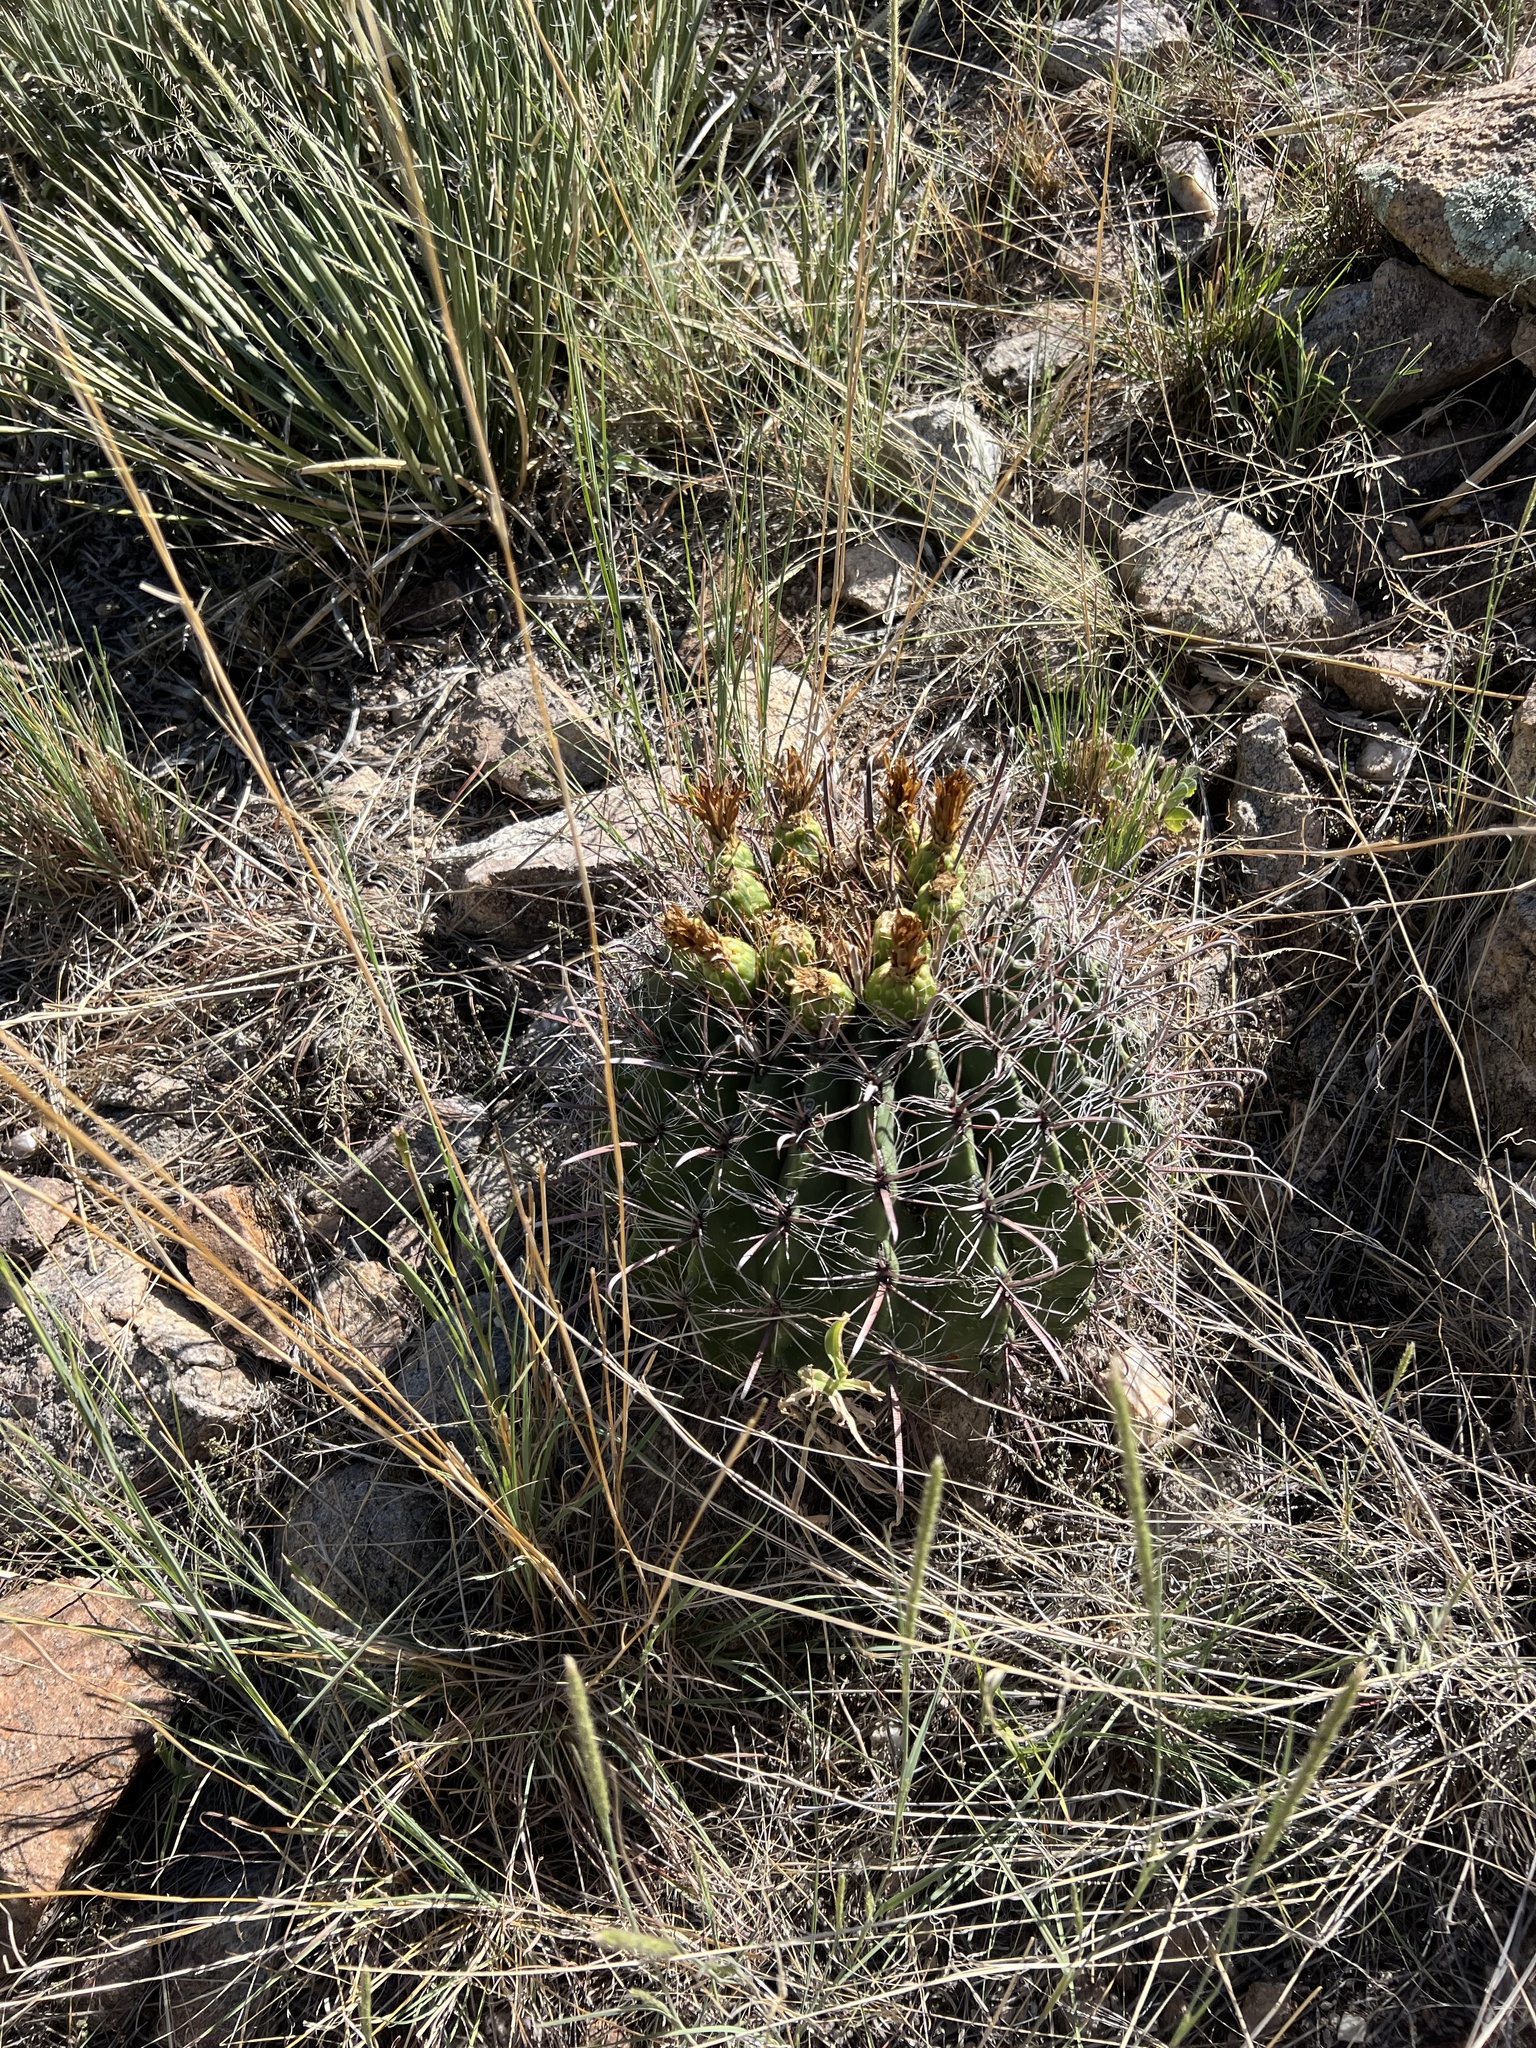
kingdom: Plantae
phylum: Tracheophyta
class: Magnoliopsida
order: Caryophyllales
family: Cactaceae
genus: Ferocactus
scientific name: Ferocactus wislizeni
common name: Candy barrel cactus
